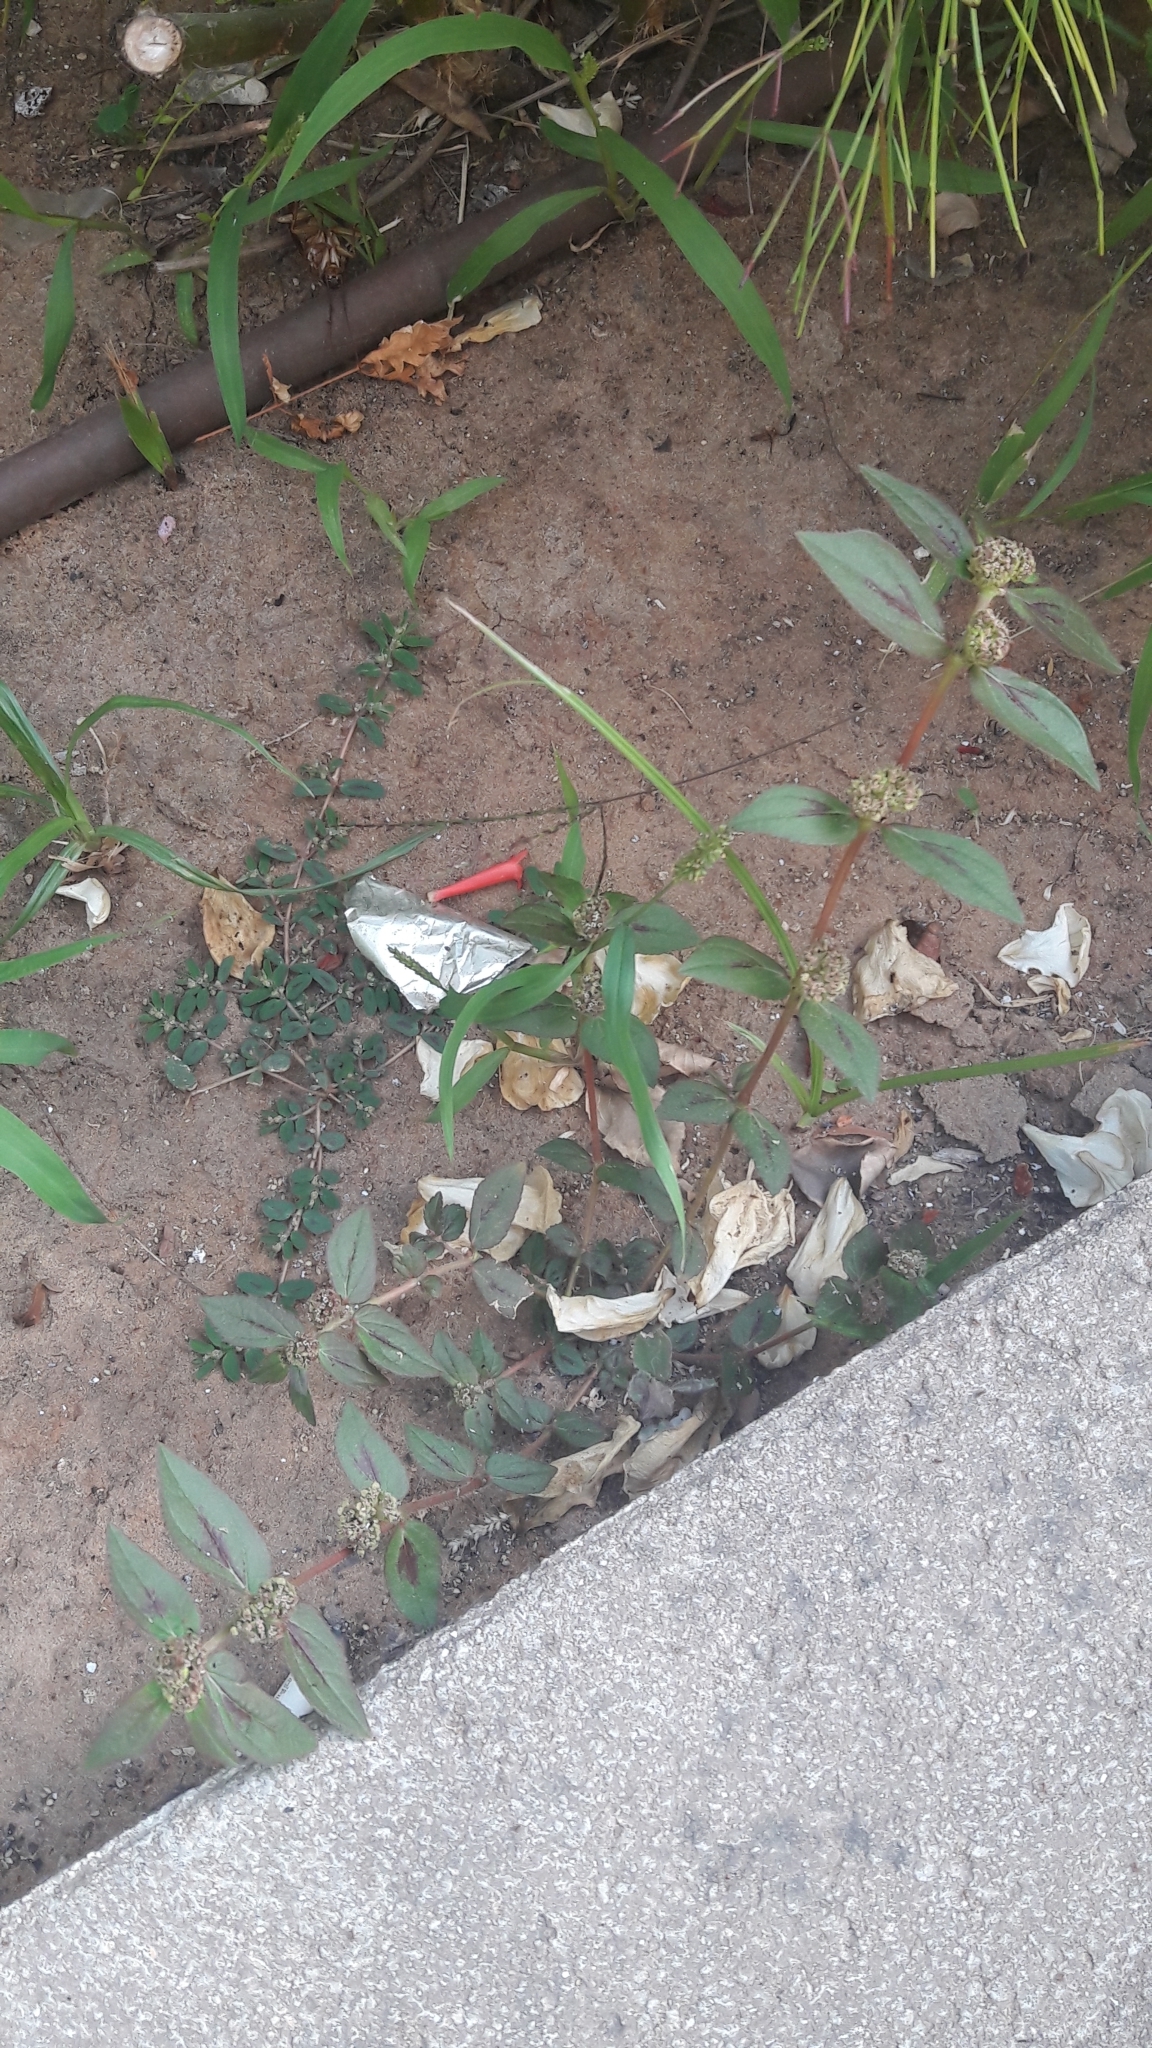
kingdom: Plantae
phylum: Tracheophyta
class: Magnoliopsida
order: Malpighiales
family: Euphorbiaceae
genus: Euphorbia
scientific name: Euphorbia hirta
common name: Pillpod sandmat
